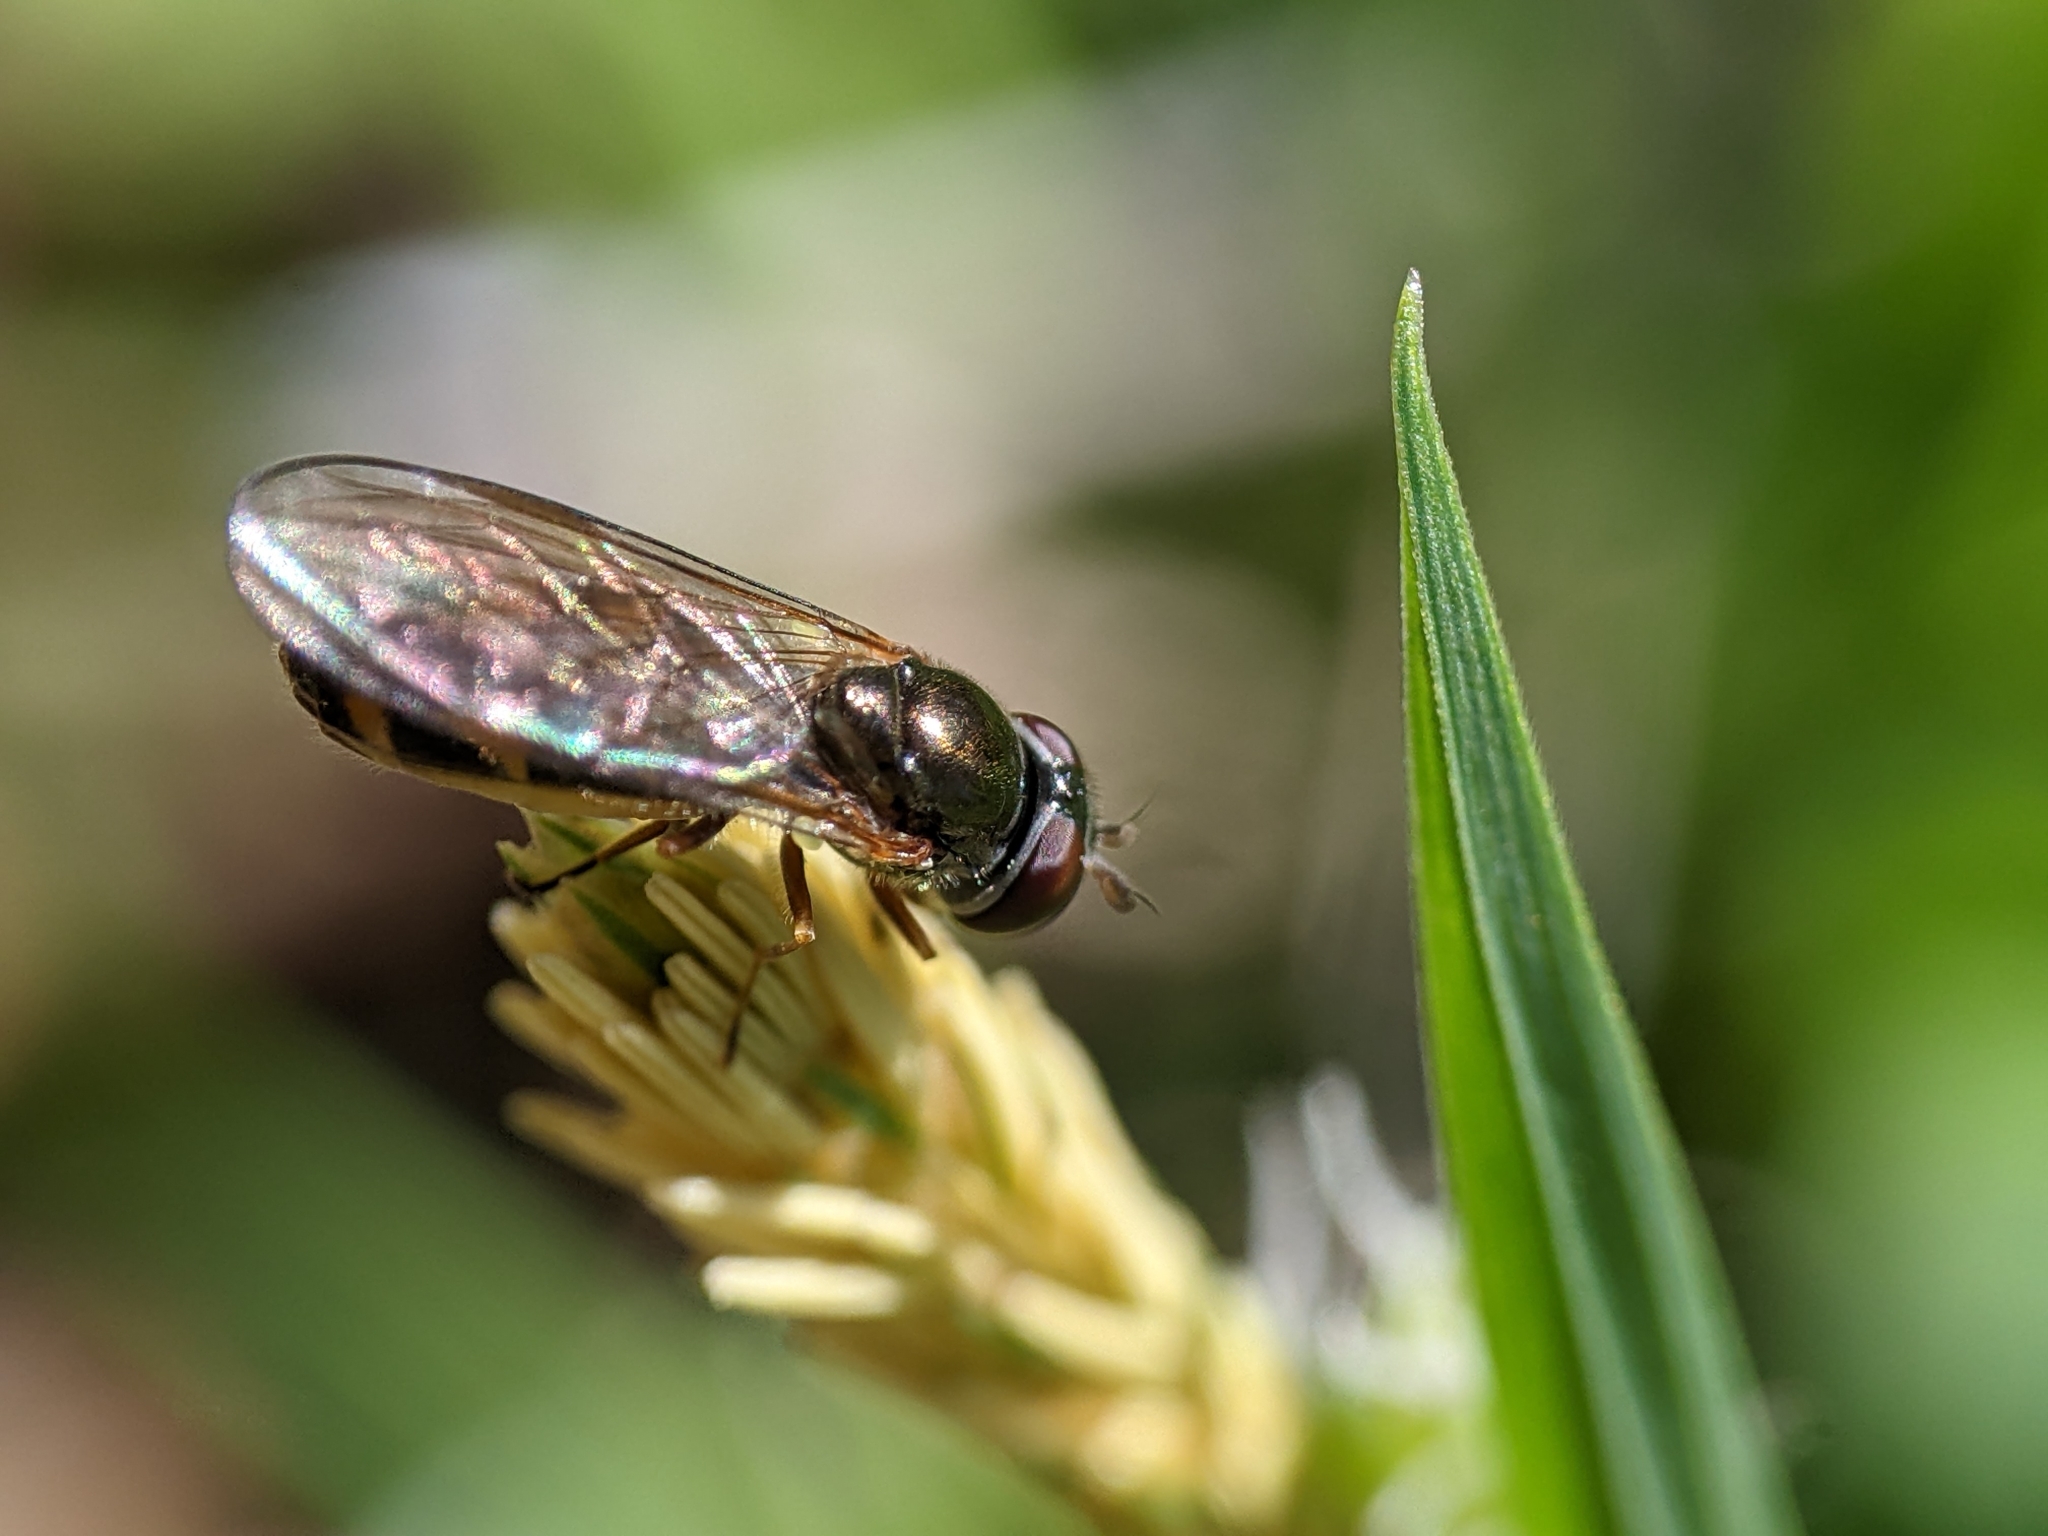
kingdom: Animalia
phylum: Arthropoda
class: Insecta
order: Diptera
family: Syrphidae
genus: Melanostoma
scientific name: Melanostoma mellina
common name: Hover fly
